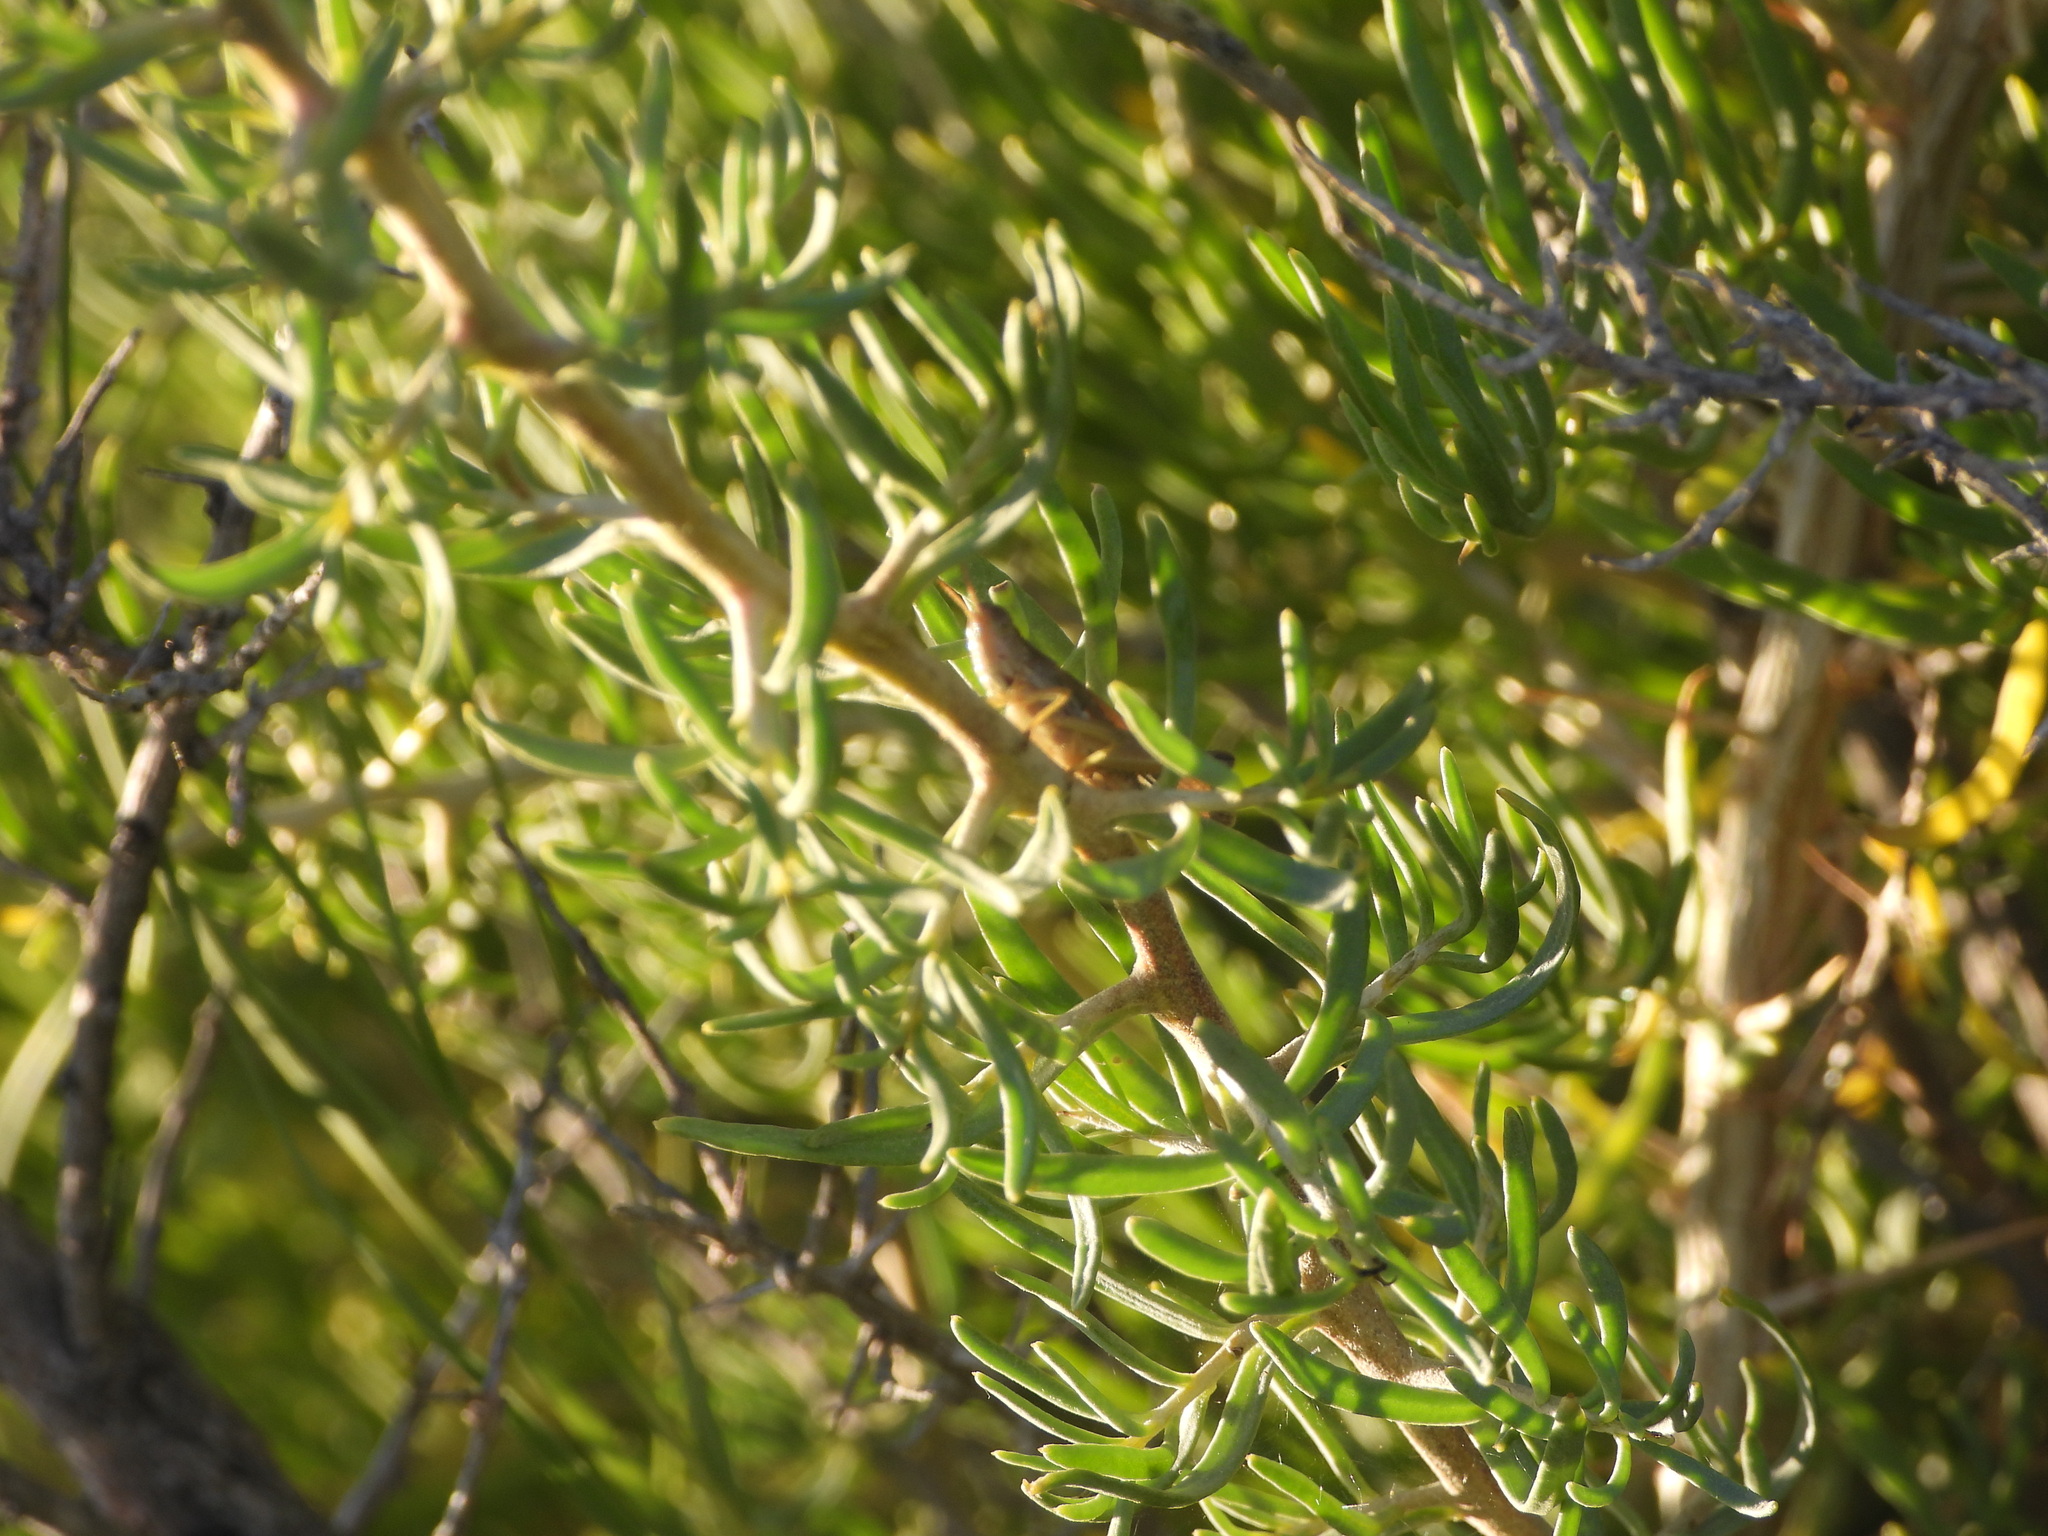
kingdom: Plantae
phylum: Tracheophyta
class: Magnoliopsida
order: Caryophyllales
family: Sarcobataceae
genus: Sarcobatus
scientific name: Sarcobatus vermiculatus
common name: Greasewood
